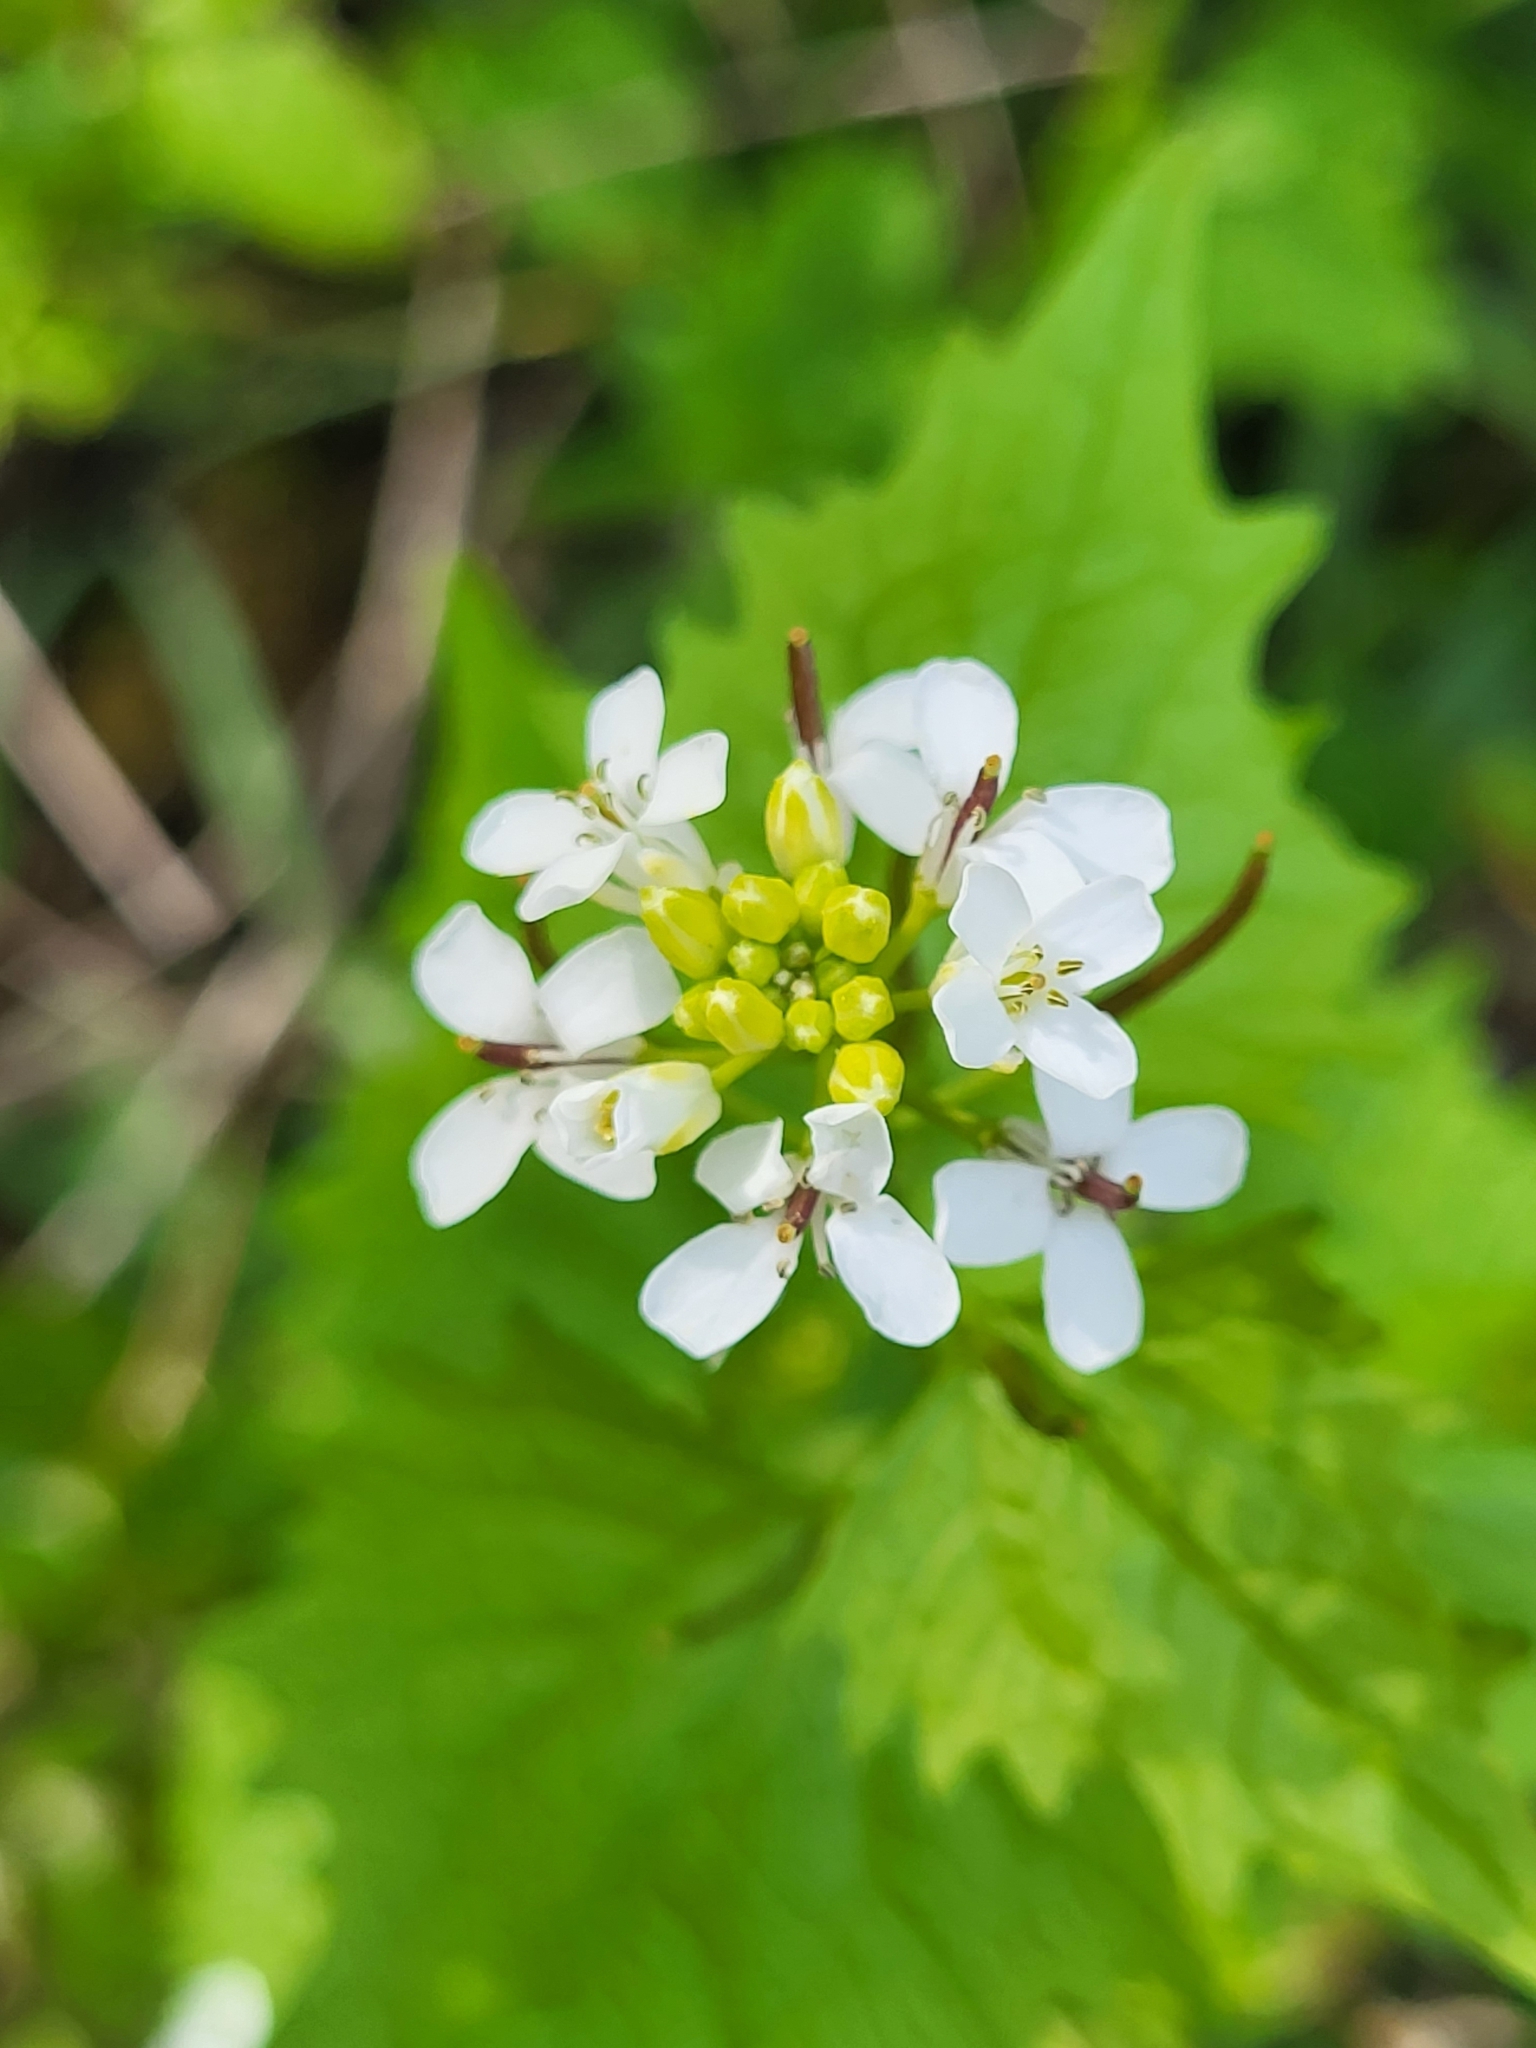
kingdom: Plantae
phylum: Tracheophyta
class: Magnoliopsida
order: Brassicales
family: Brassicaceae
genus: Alliaria
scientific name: Alliaria petiolata
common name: Garlic mustard
